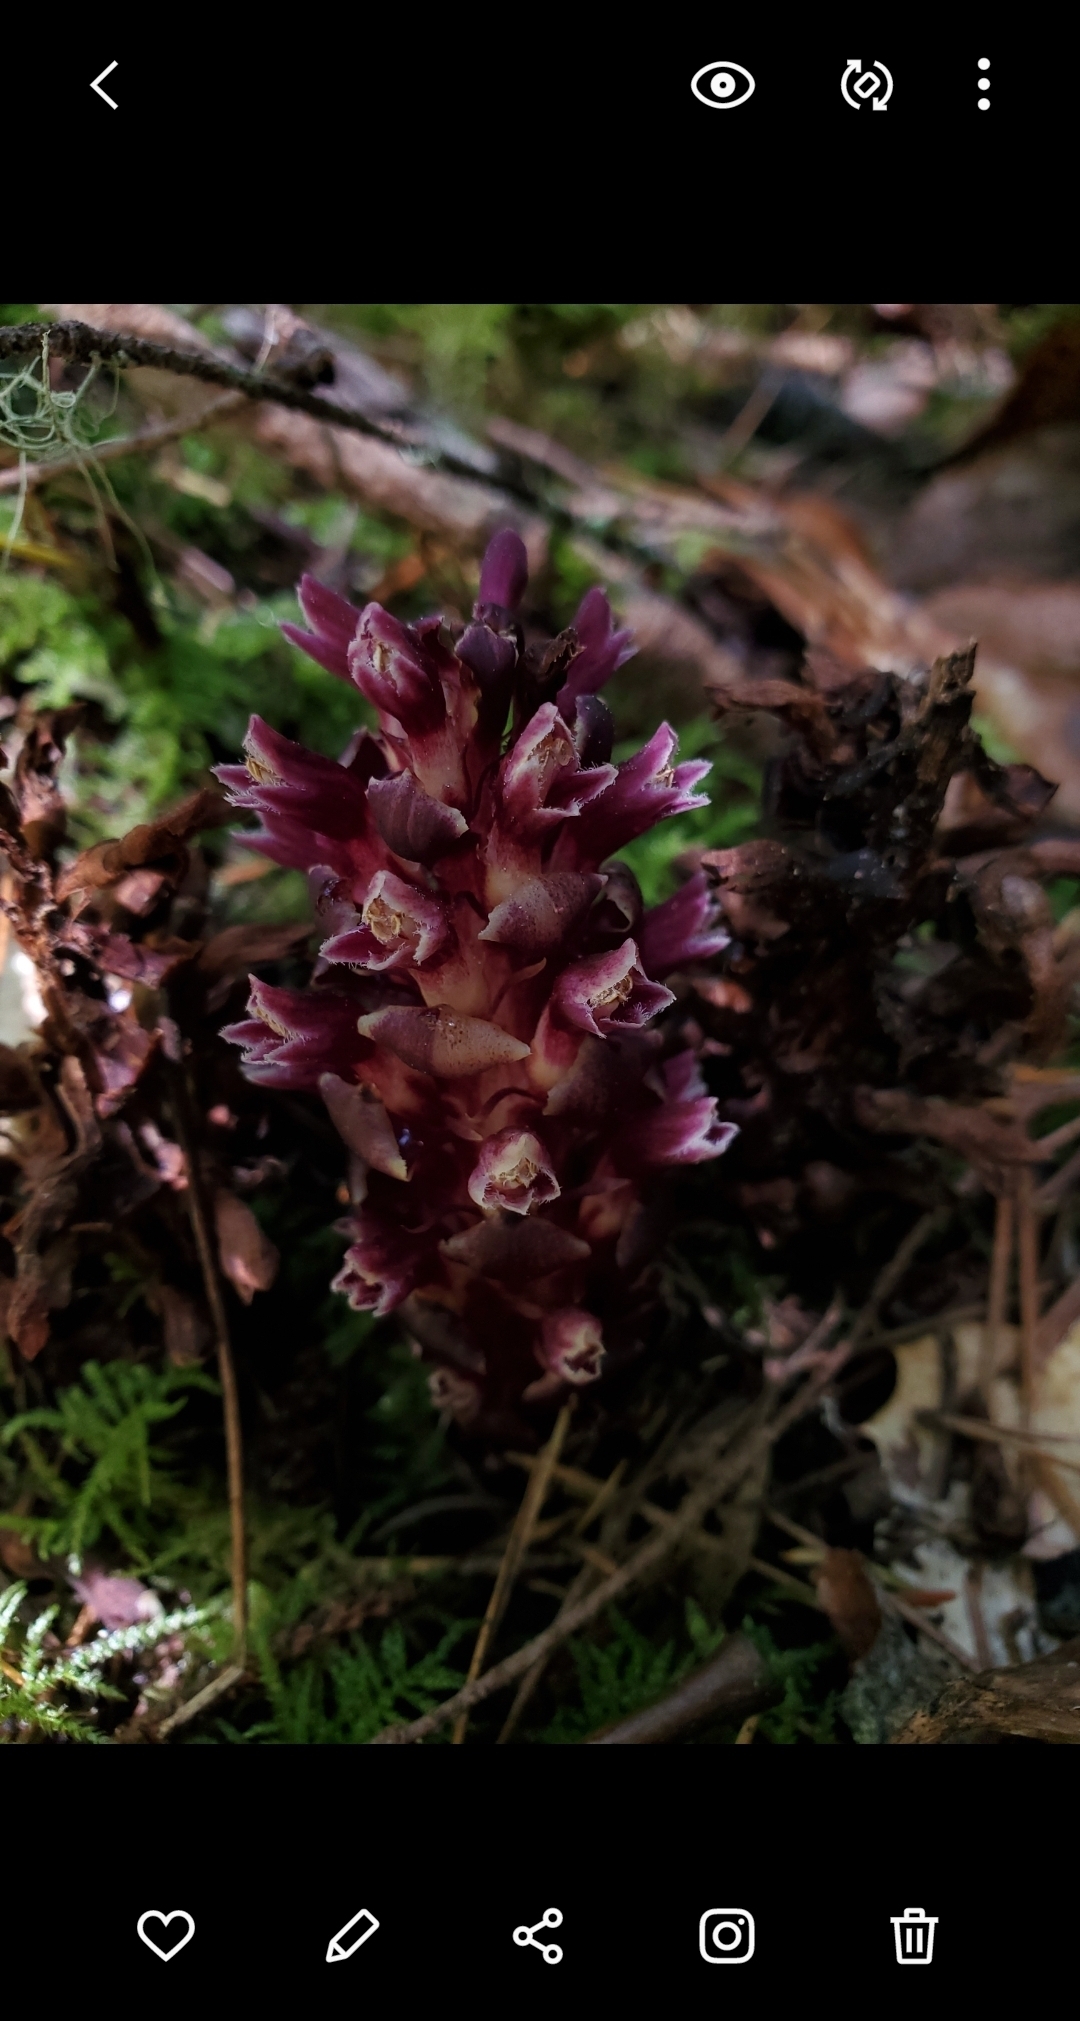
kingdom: Plantae
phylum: Tracheophyta
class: Magnoliopsida
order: Lamiales
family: Orobanchaceae
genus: Kopsiopsis
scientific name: Kopsiopsis hookeri
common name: Hooker's groundcone
